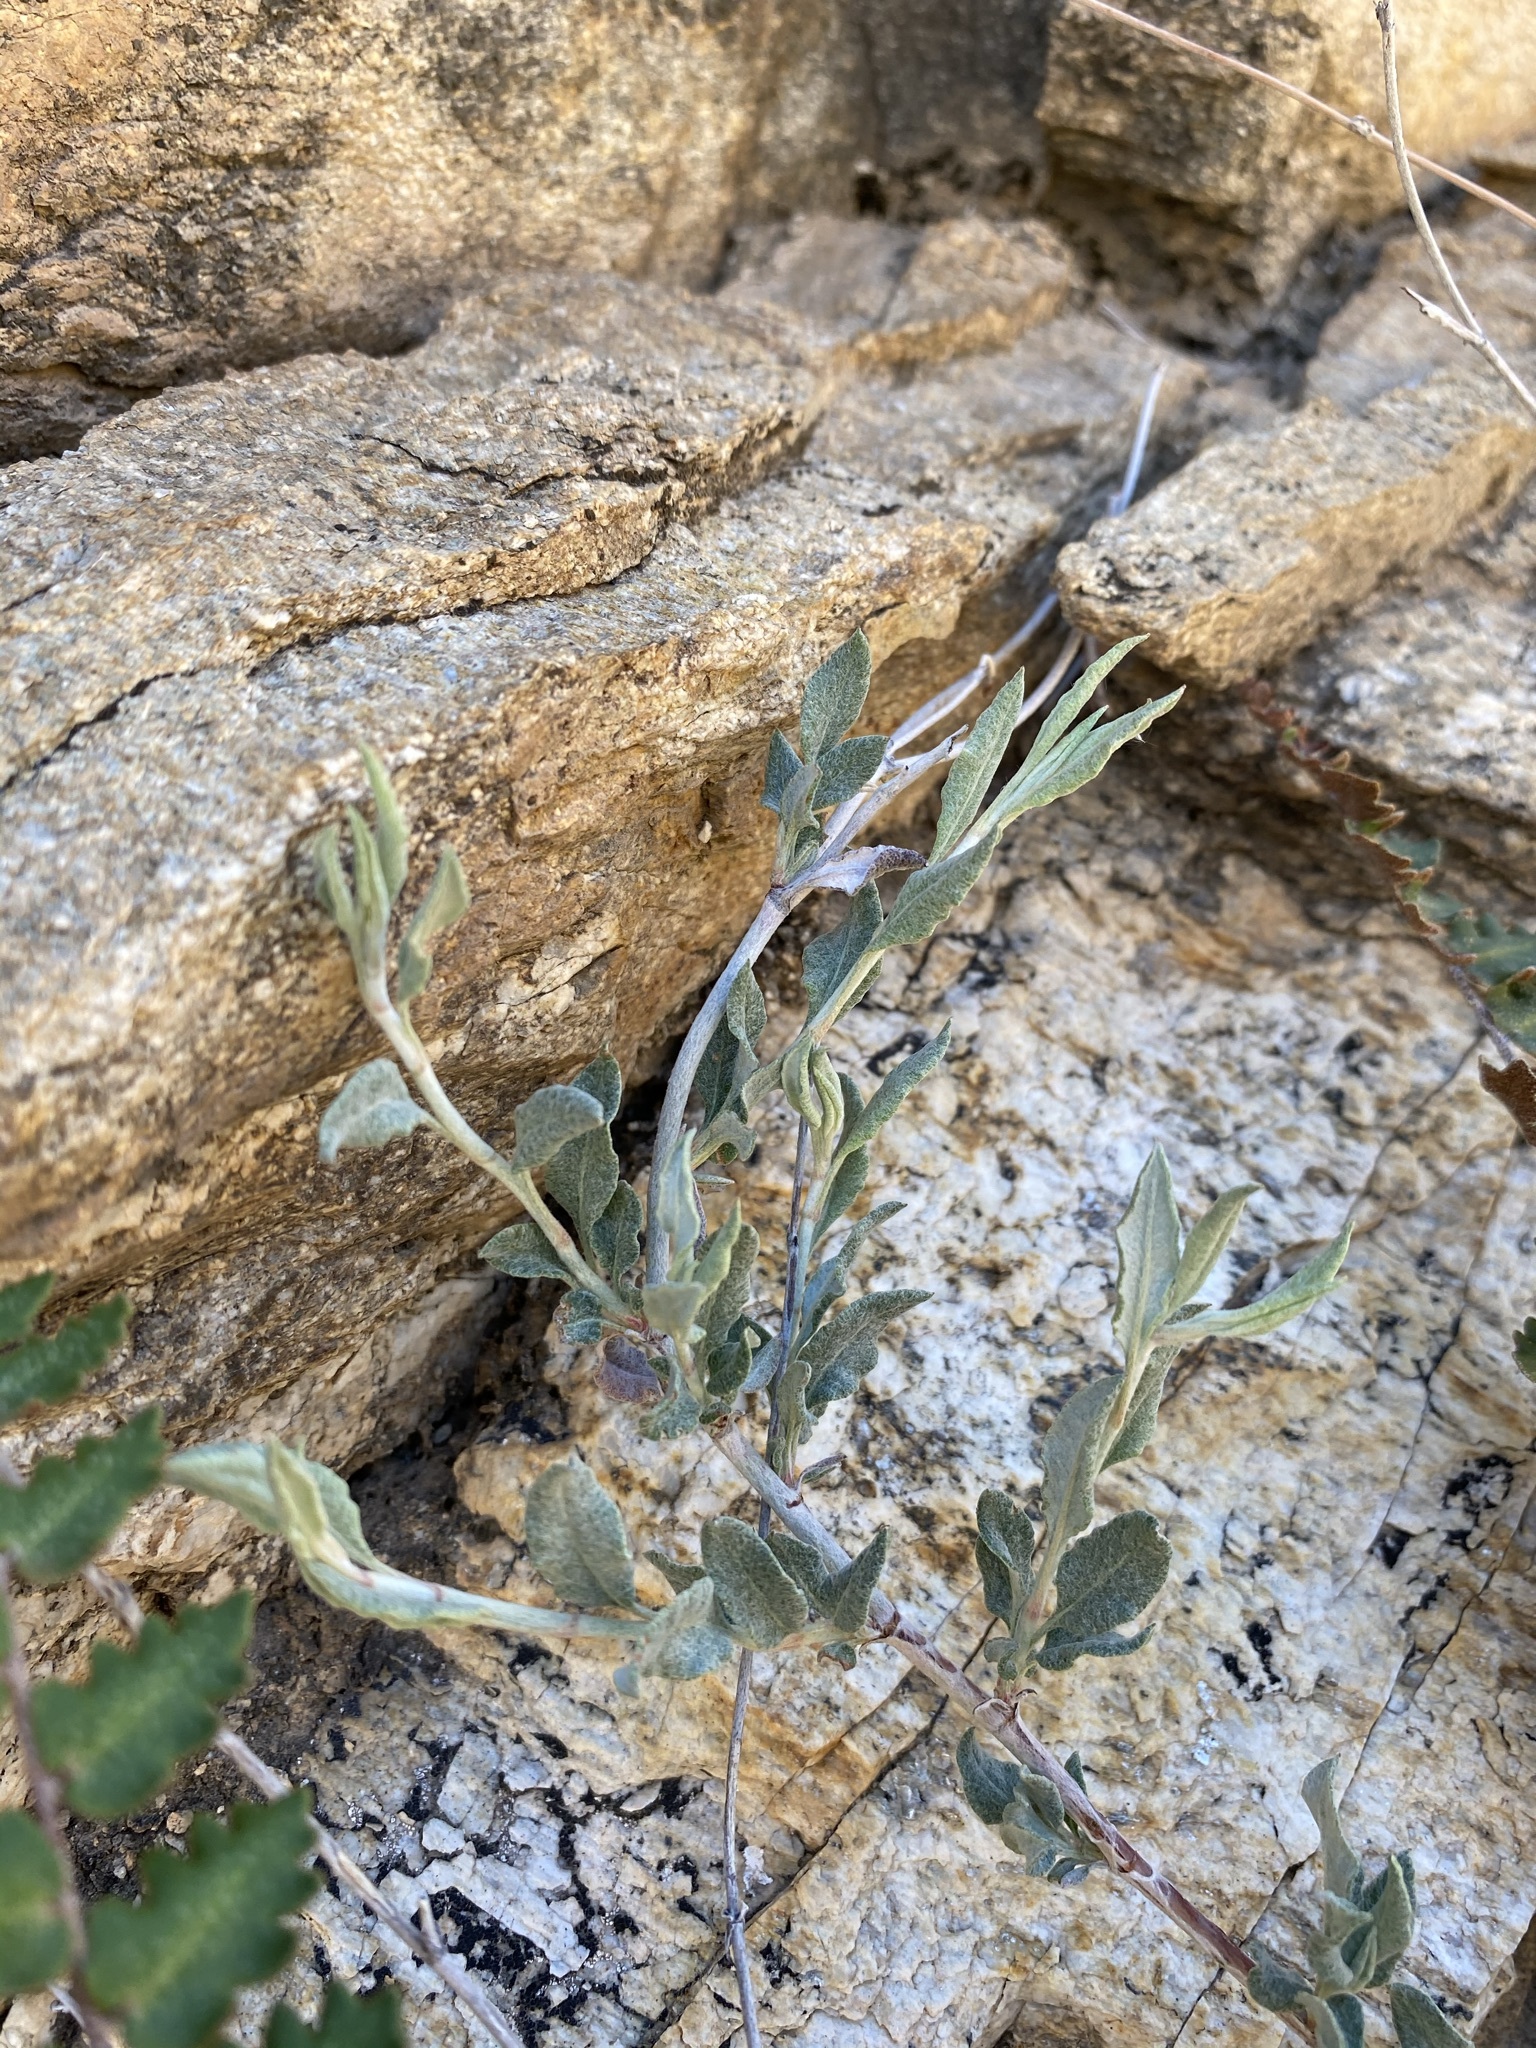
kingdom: Plantae
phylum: Tracheophyta
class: Magnoliopsida
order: Caryophyllales
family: Polygonaceae
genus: Eriogonum
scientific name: Eriogonum wrightii
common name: Bastard-sage
